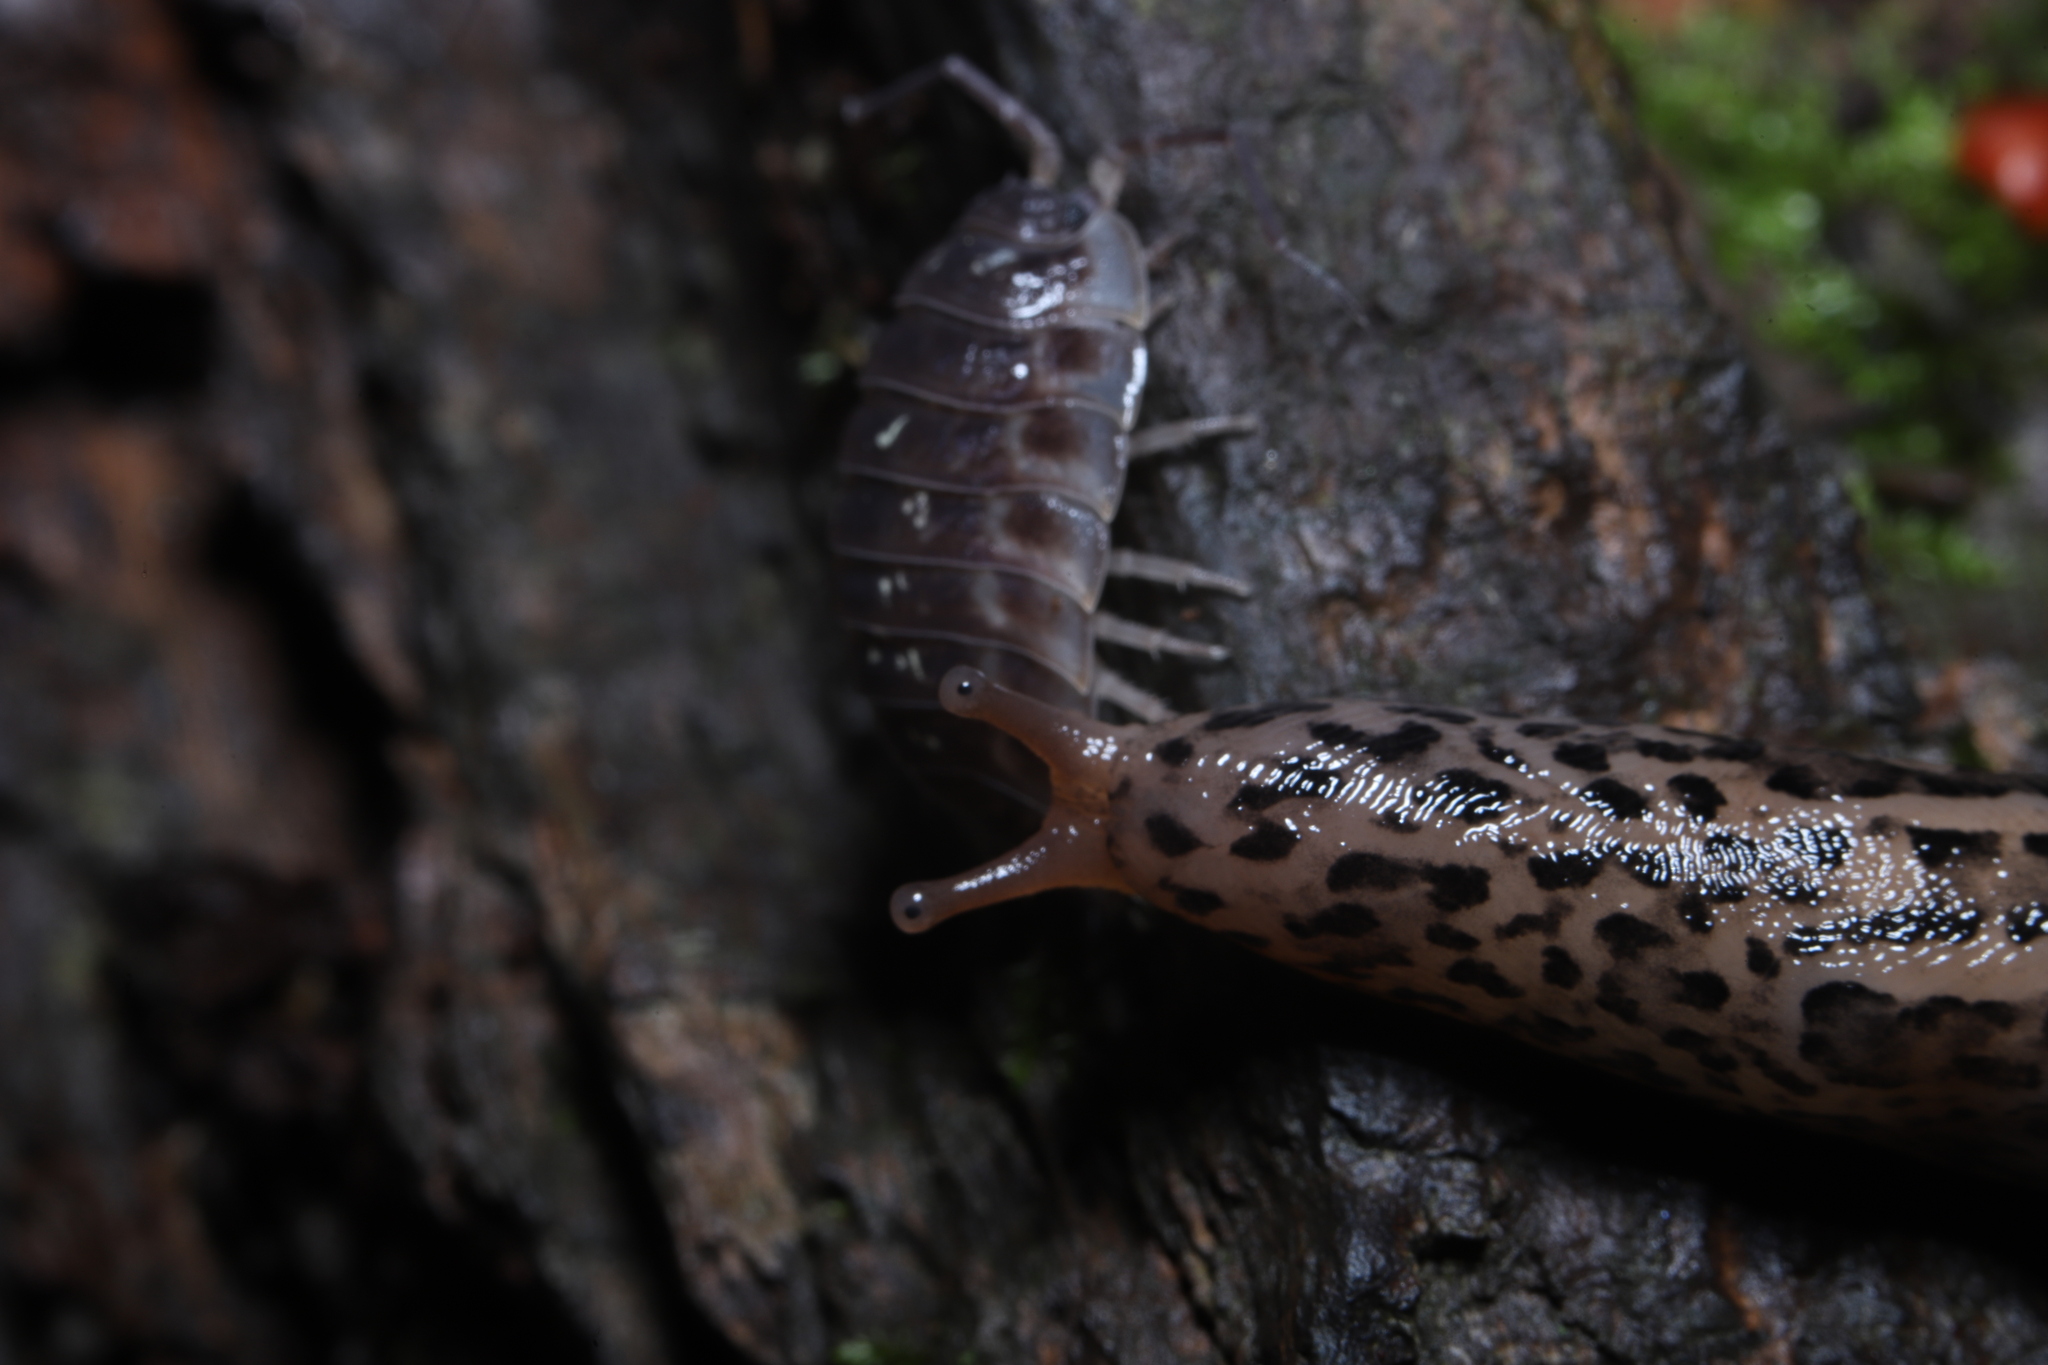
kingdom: Animalia
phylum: Mollusca
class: Gastropoda
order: Stylommatophora
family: Limacidae
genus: Limax
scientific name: Limax maximus
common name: Great grey slug
